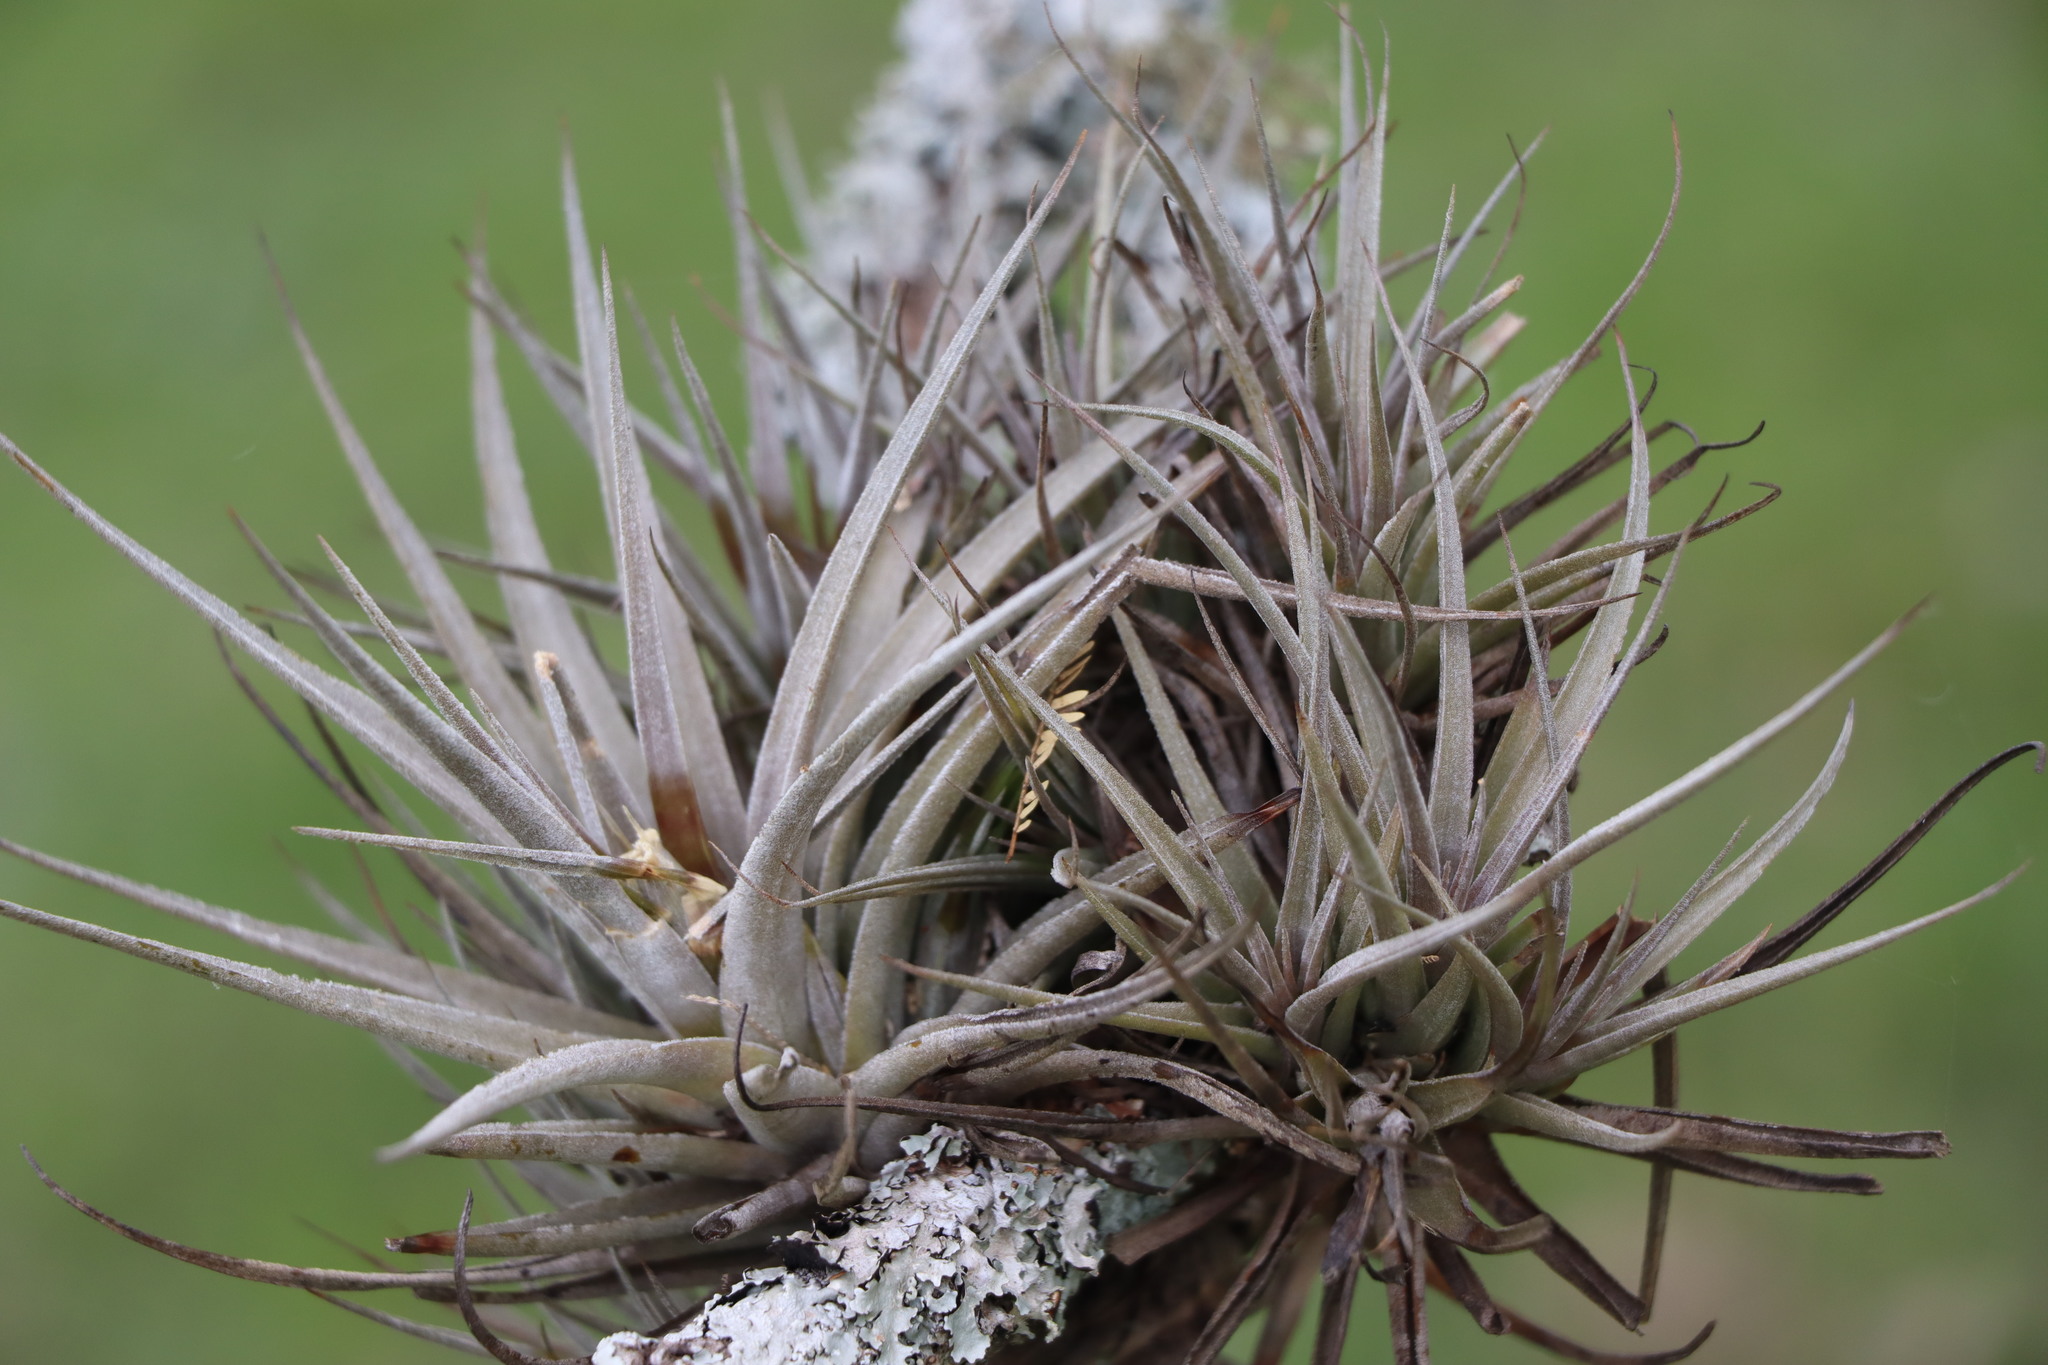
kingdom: Plantae
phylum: Tracheophyta
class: Liliopsida
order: Poales
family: Bromeliaceae
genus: Tillandsia
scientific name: Tillandsia ixioides
